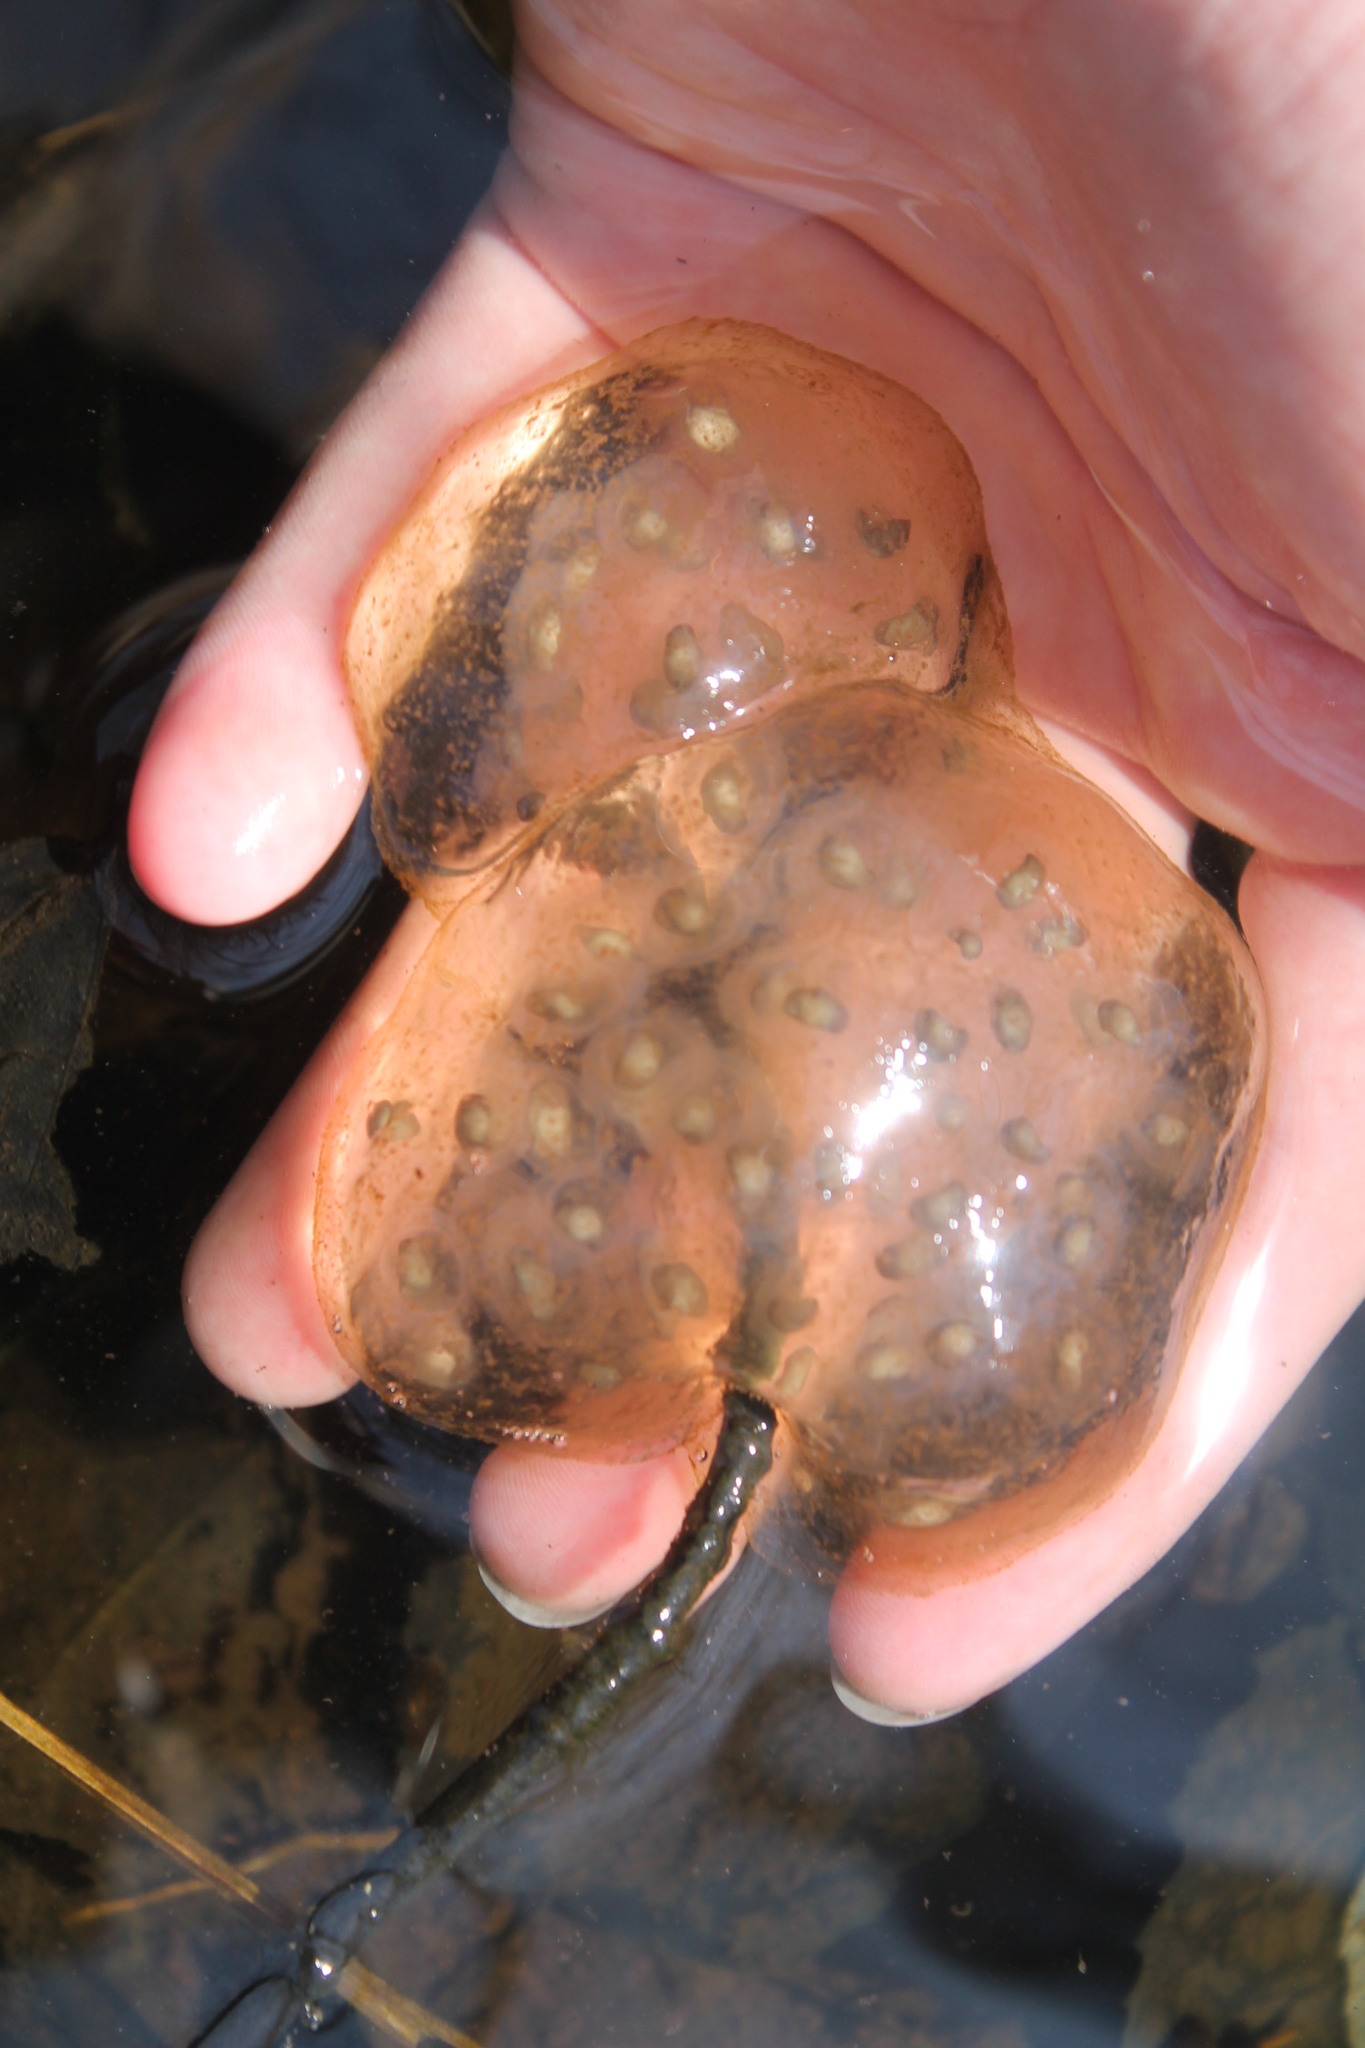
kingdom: Animalia
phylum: Chordata
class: Amphibia
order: Caudata
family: Ambystomatidae
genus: Ambystoma
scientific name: Ambystoma maculatum
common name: Spotted salamander
